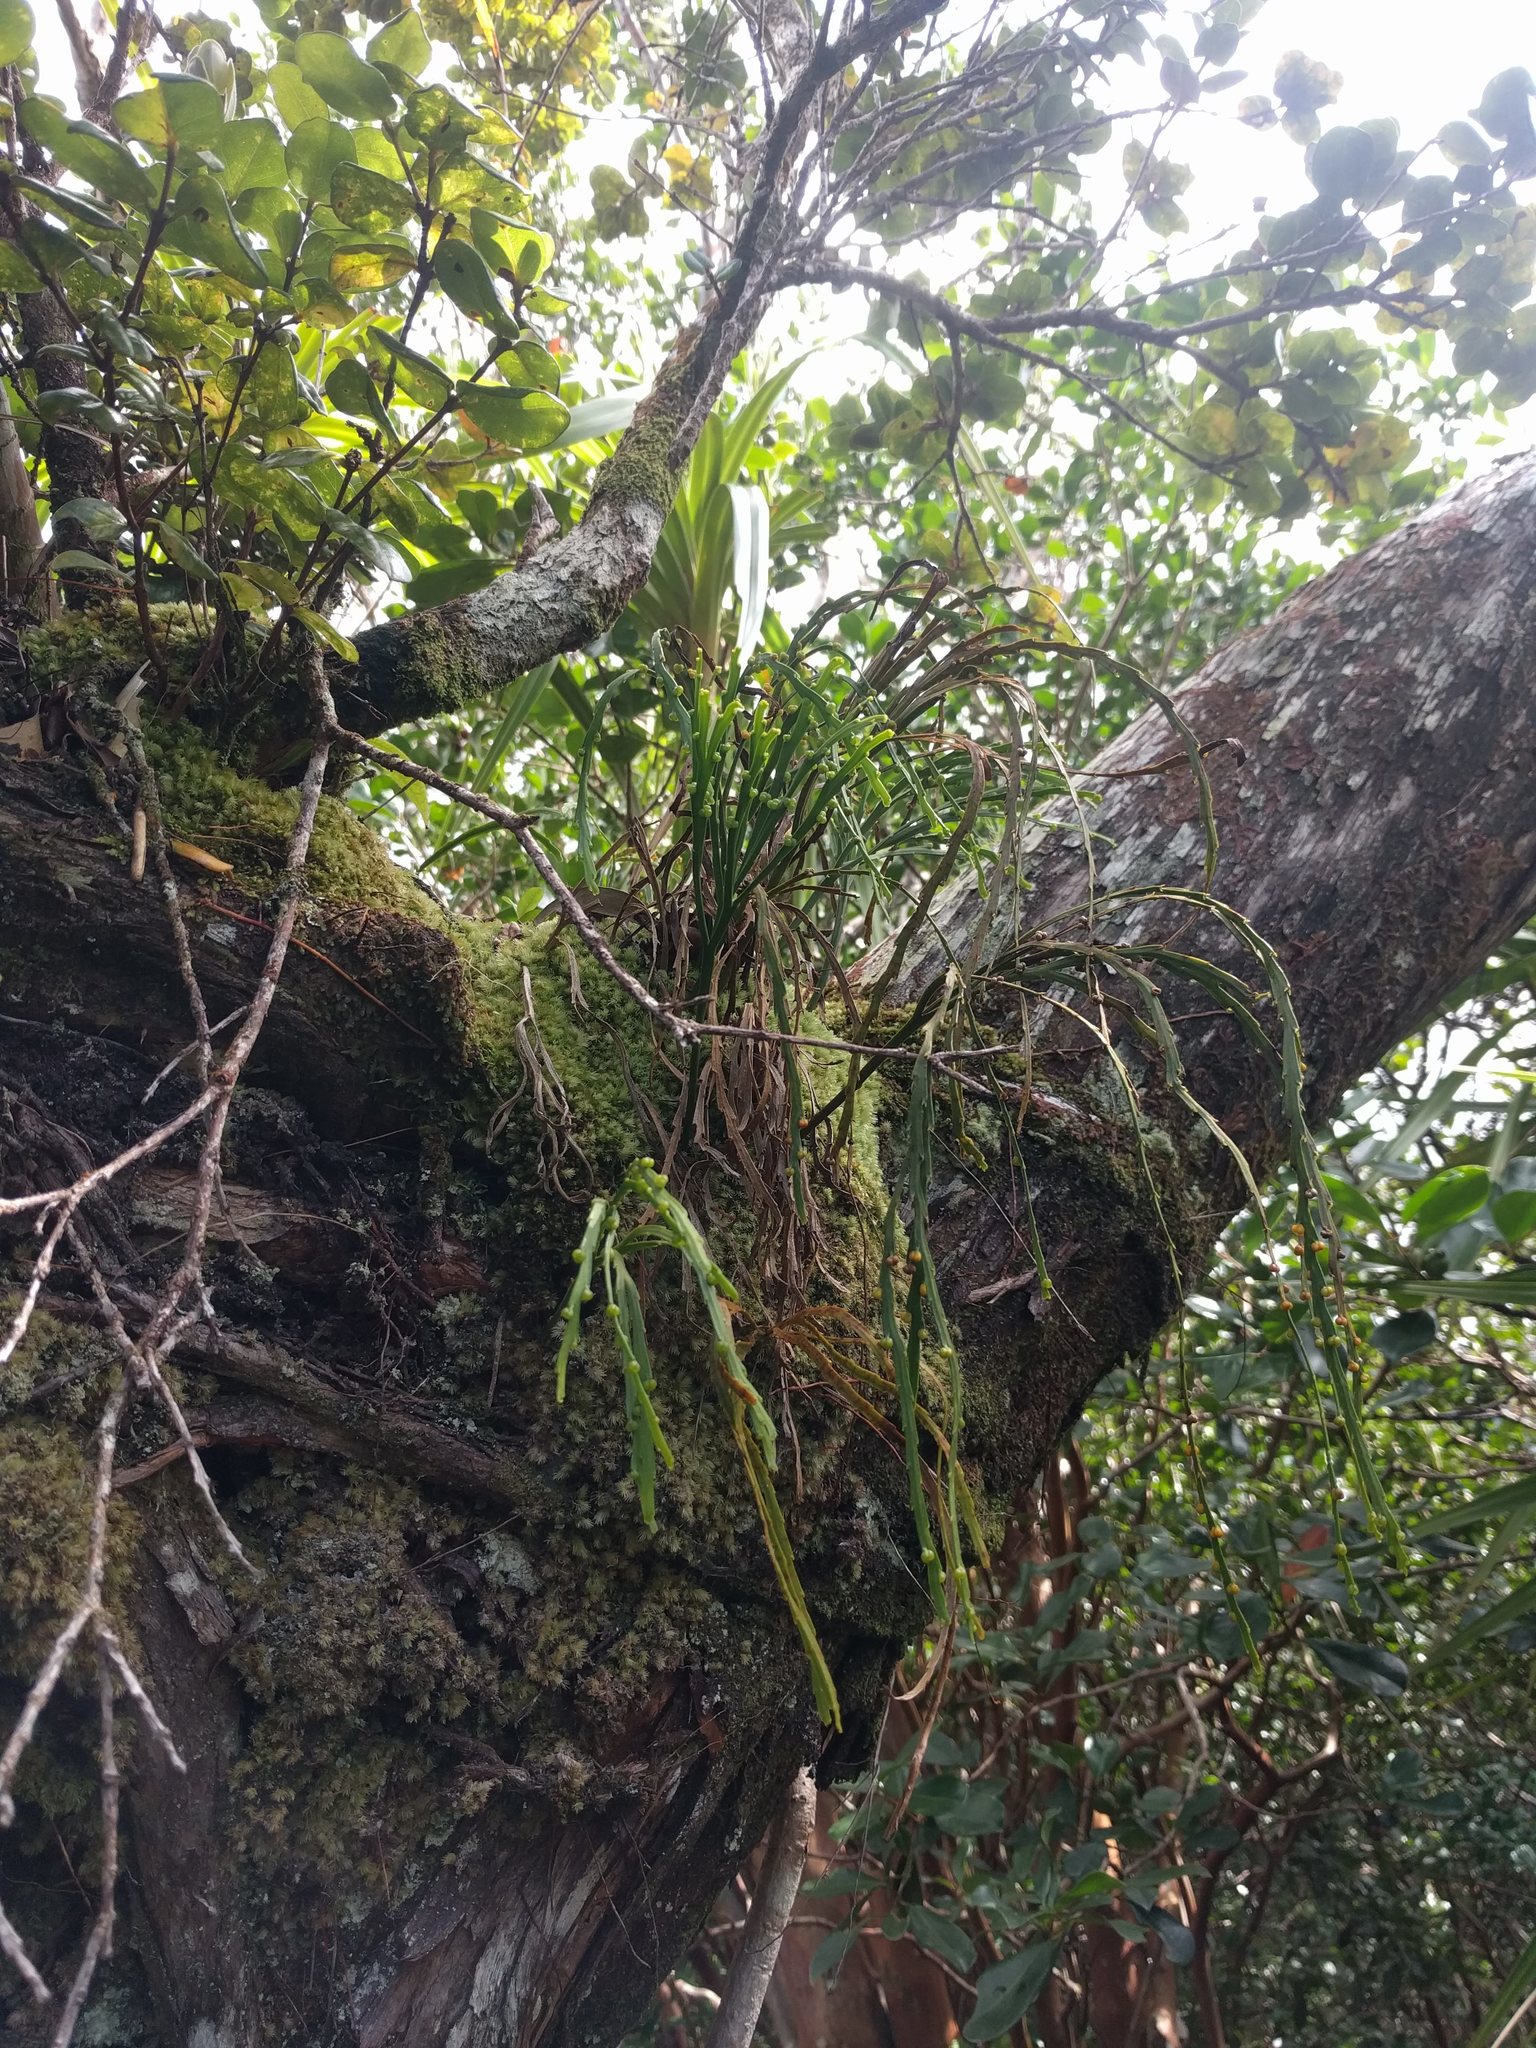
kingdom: Plantae
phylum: Tracheophyta
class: Polypodiopsida
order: Psilotales
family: Psilotaceae
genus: Psilotum
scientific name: Psilotum complanatum
